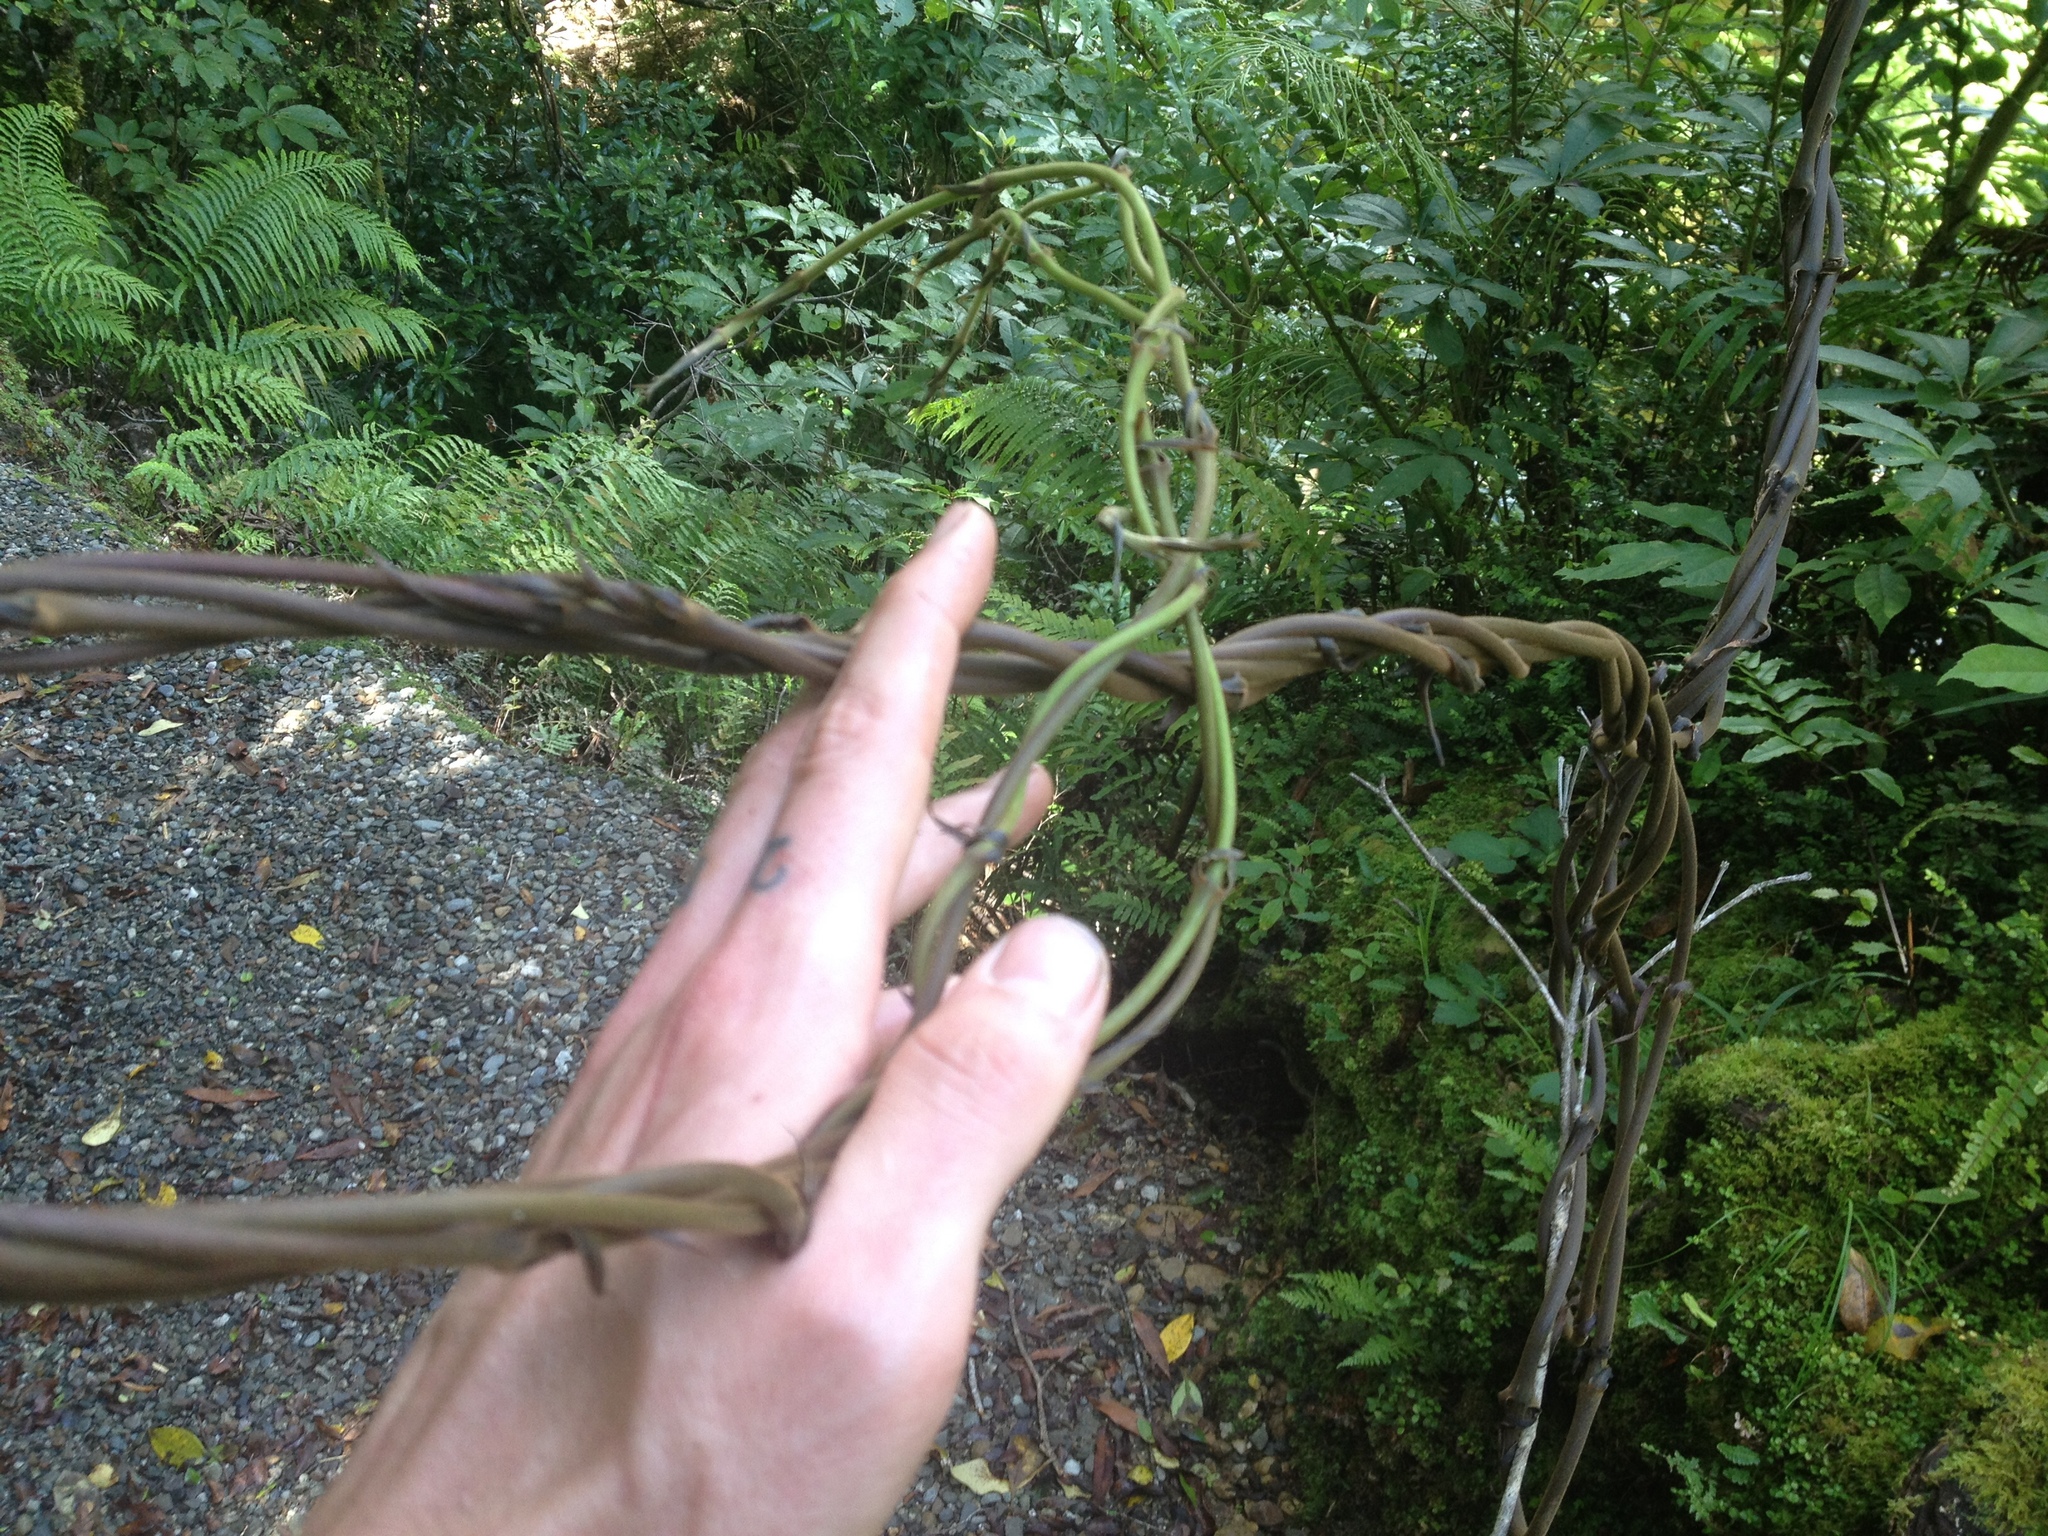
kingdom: Plantae
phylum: Tracheophyta
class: Liliopsida
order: Liliales
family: Ripogonaceae
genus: Ripogonum
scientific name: Ripogonum scandens
